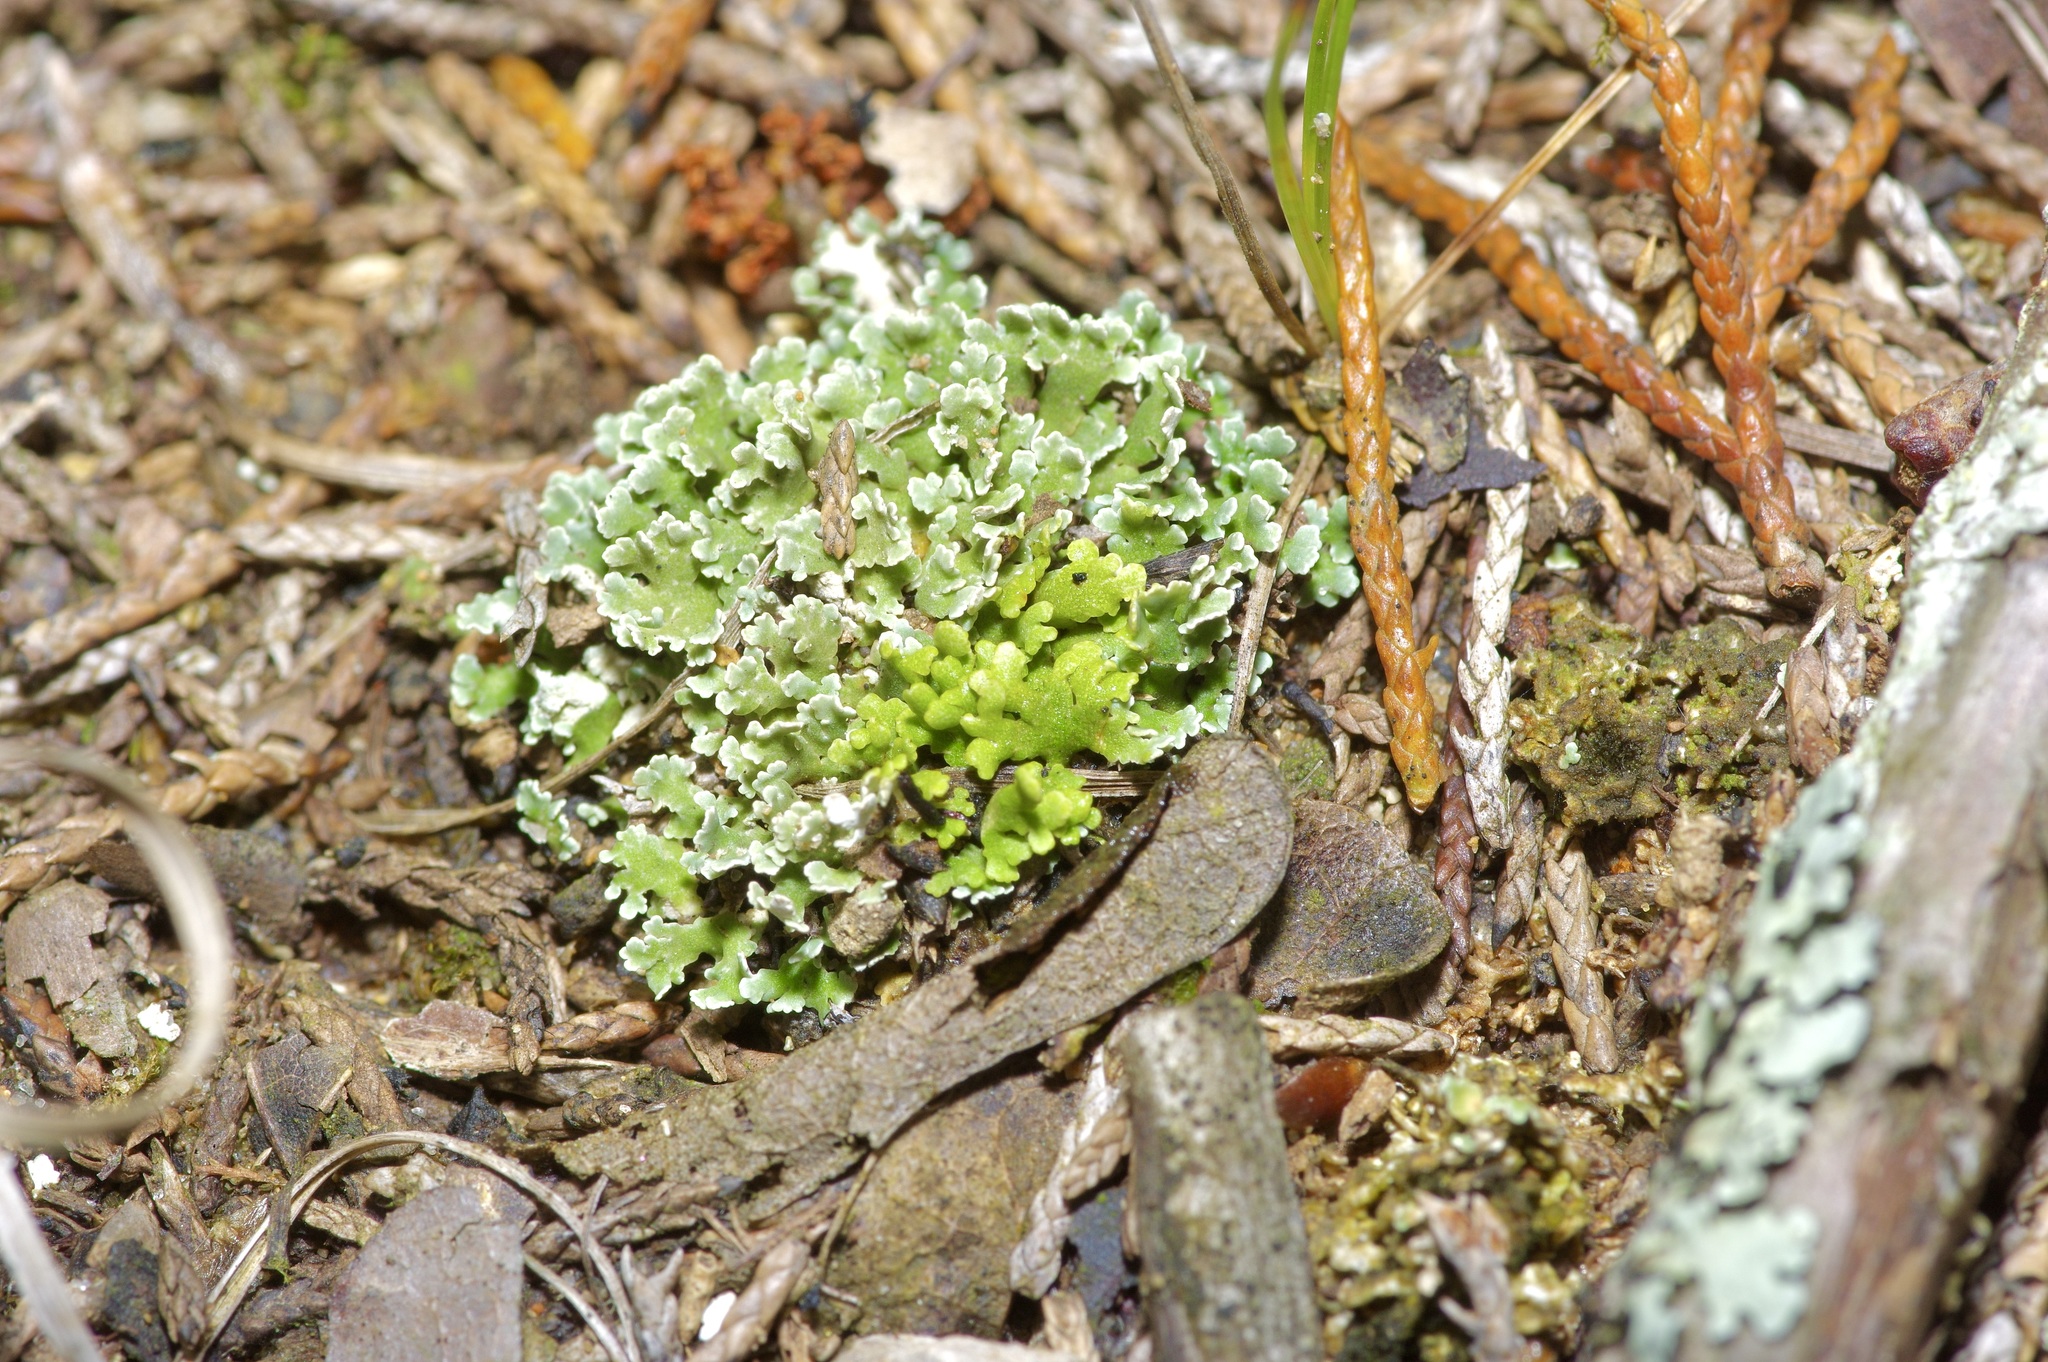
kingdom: Fungi
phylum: Ascomycota
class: Lecanoromycetes
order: Lecanorales
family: Cladoniaceae
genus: Cladonia
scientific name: Cladonia caespiticia
